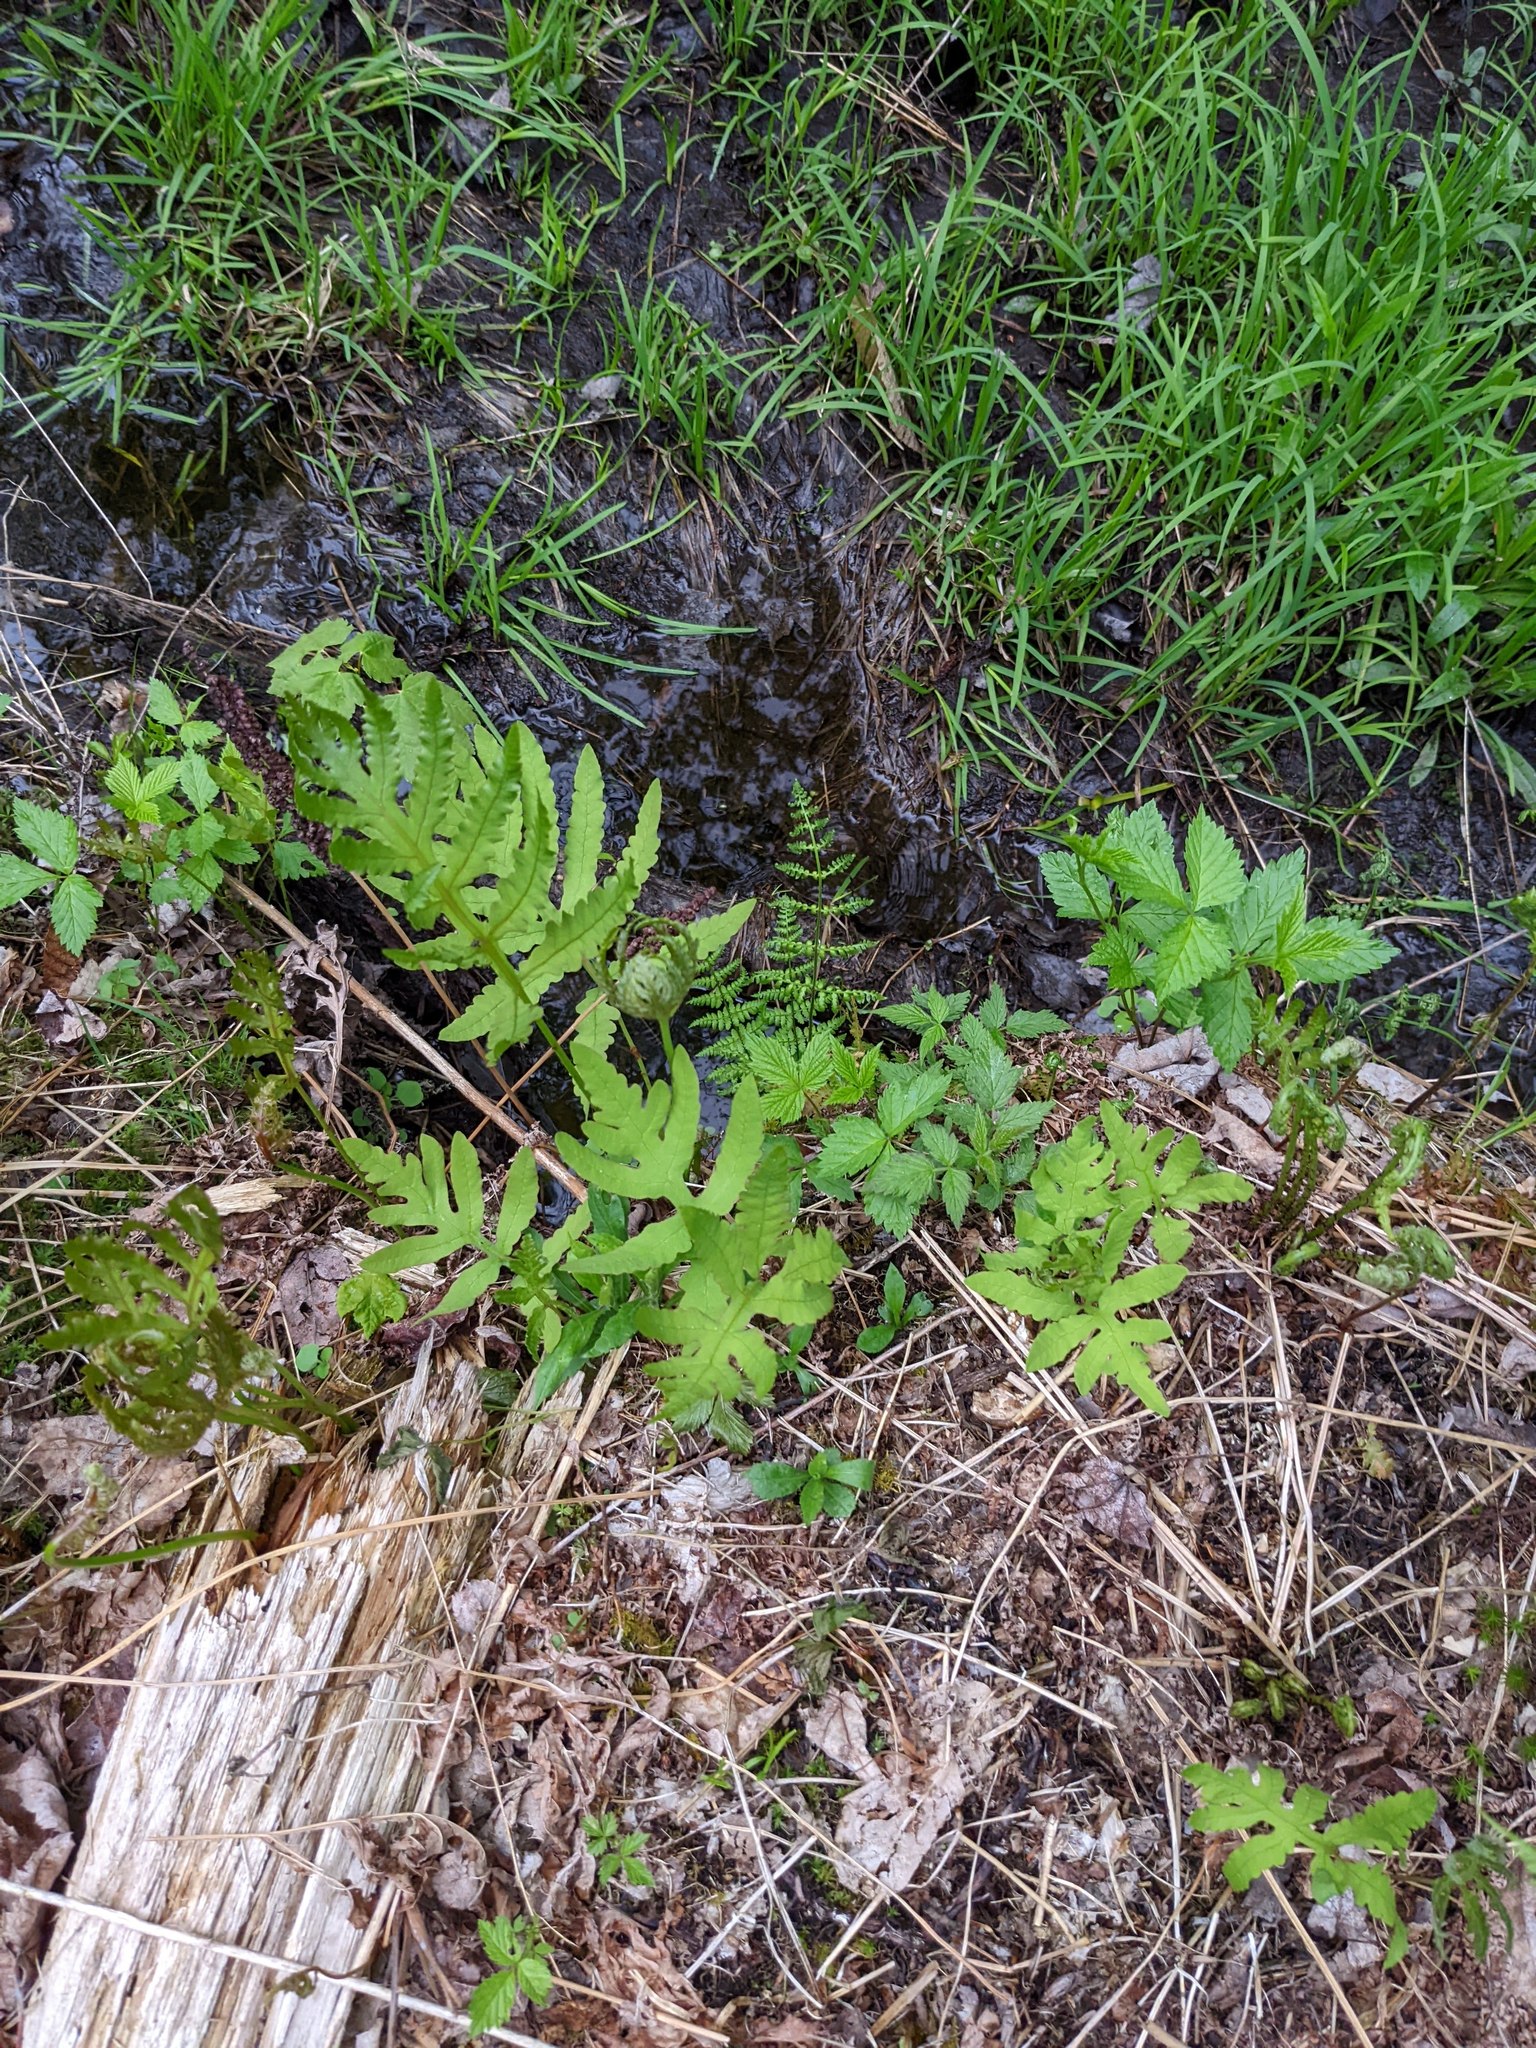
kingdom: Plantae
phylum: Tracheophyta
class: Polypodiopsida
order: Polypodiales
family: Onocleaceae
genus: Onoclea
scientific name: Onoclea sensibilis
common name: Sensitive fern
